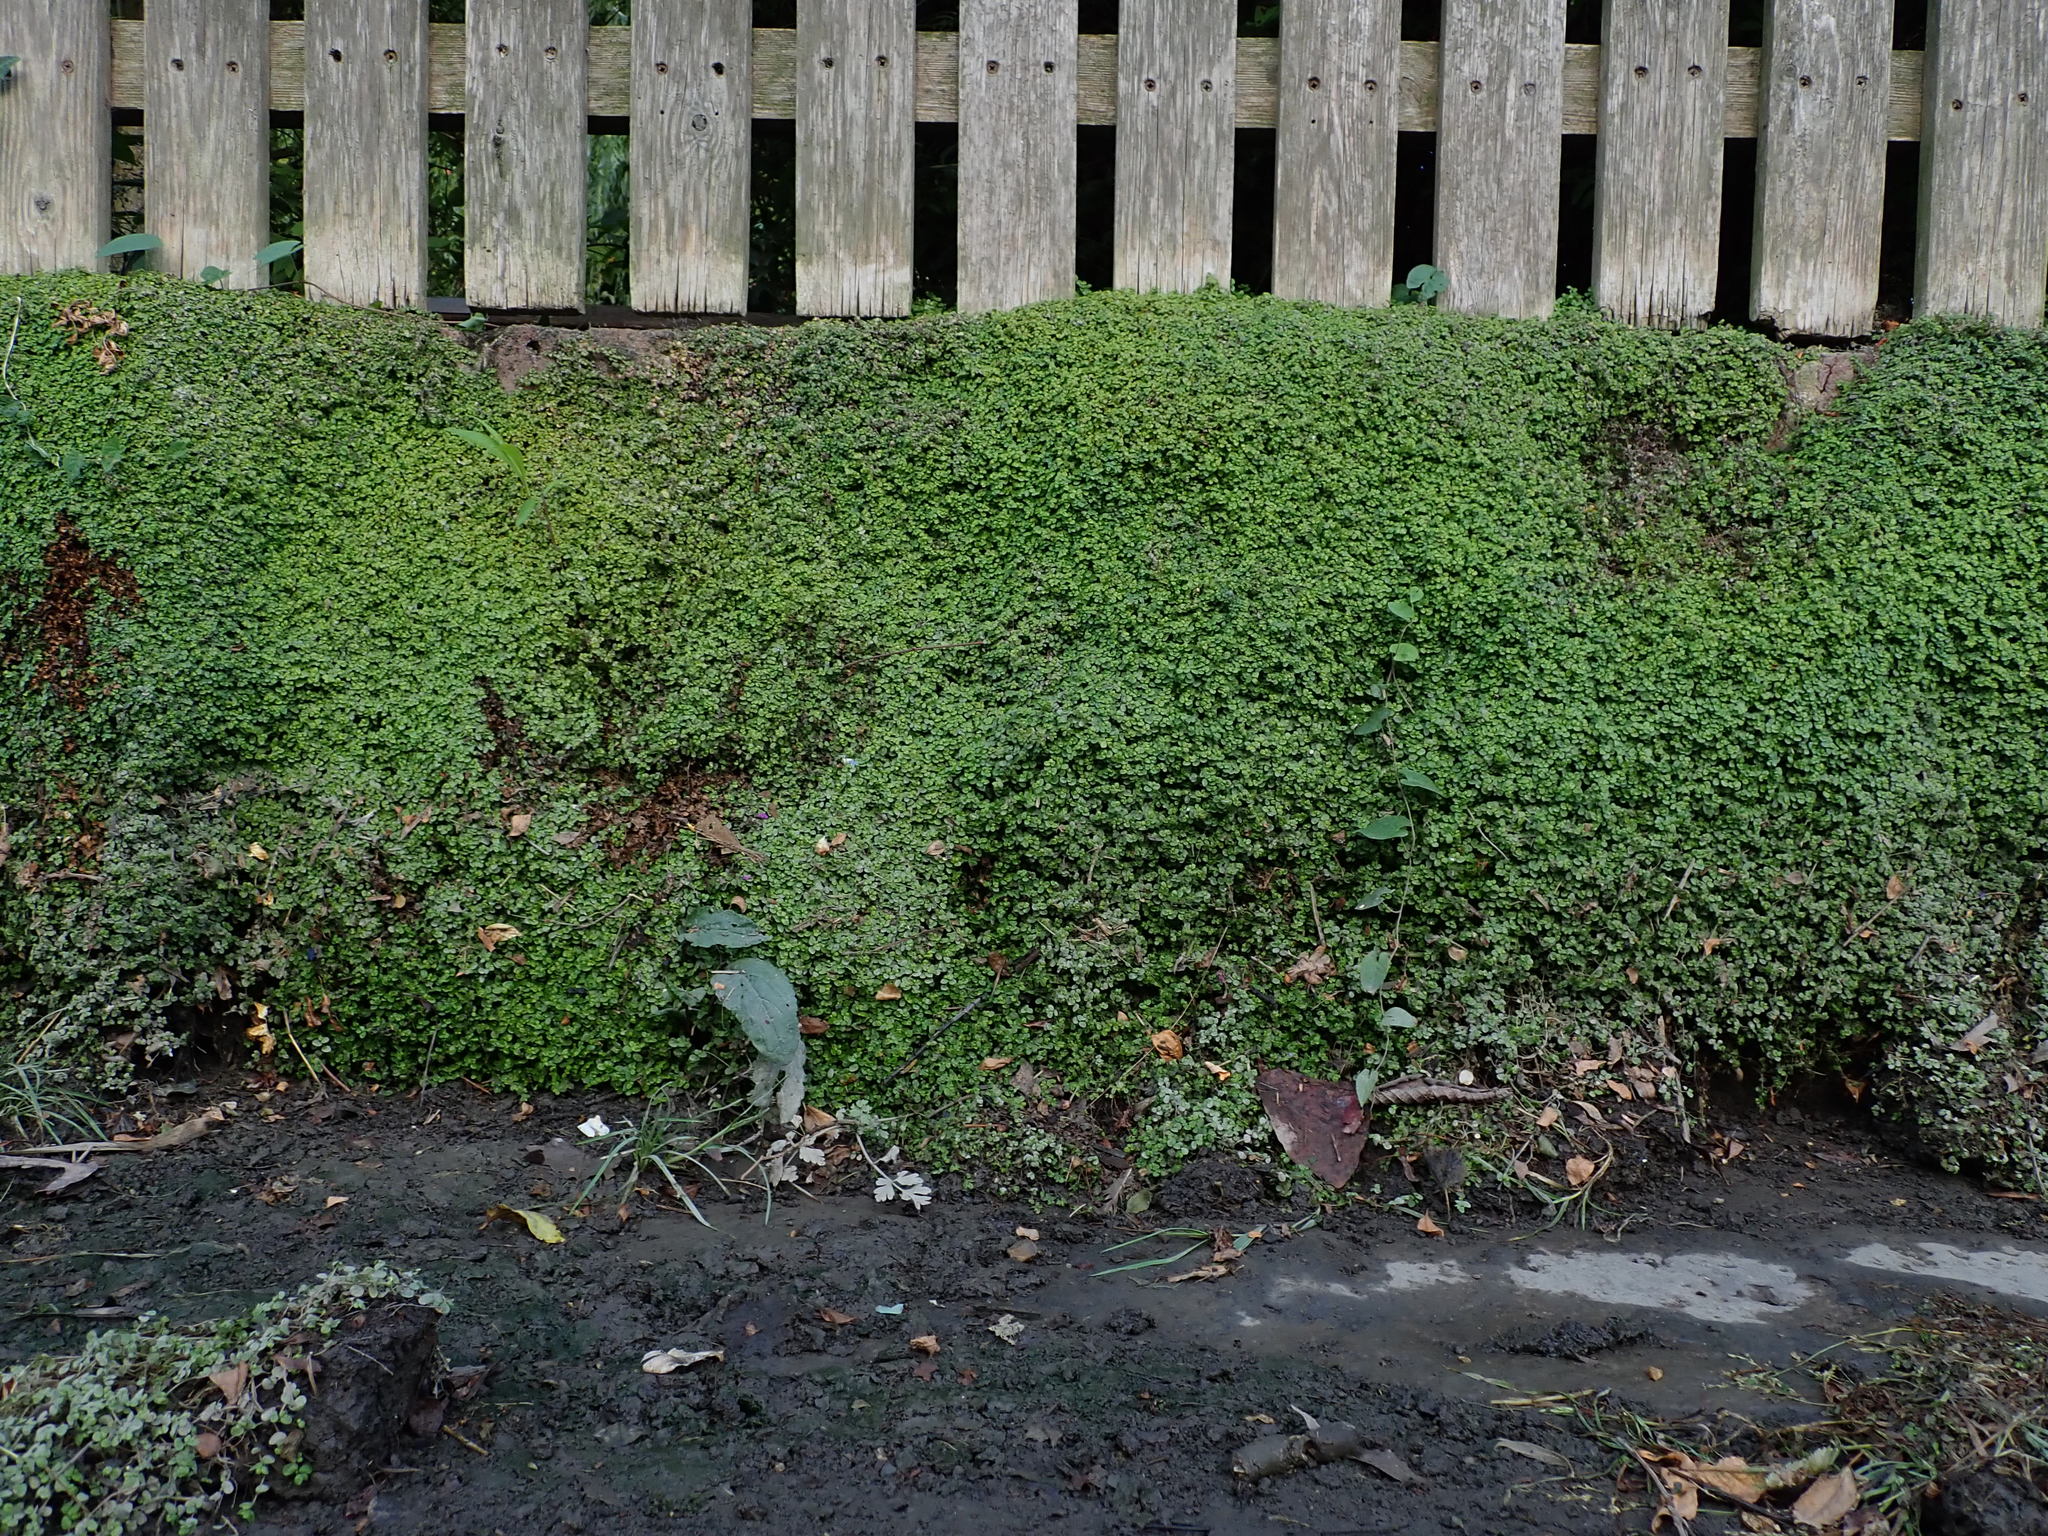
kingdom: Plantae
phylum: Tracheophyta
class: Magnoliopsida
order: Rosales
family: Urticaceae
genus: Soleirolia
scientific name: Soleirolia soleirolii
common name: Mind-your-own-business
